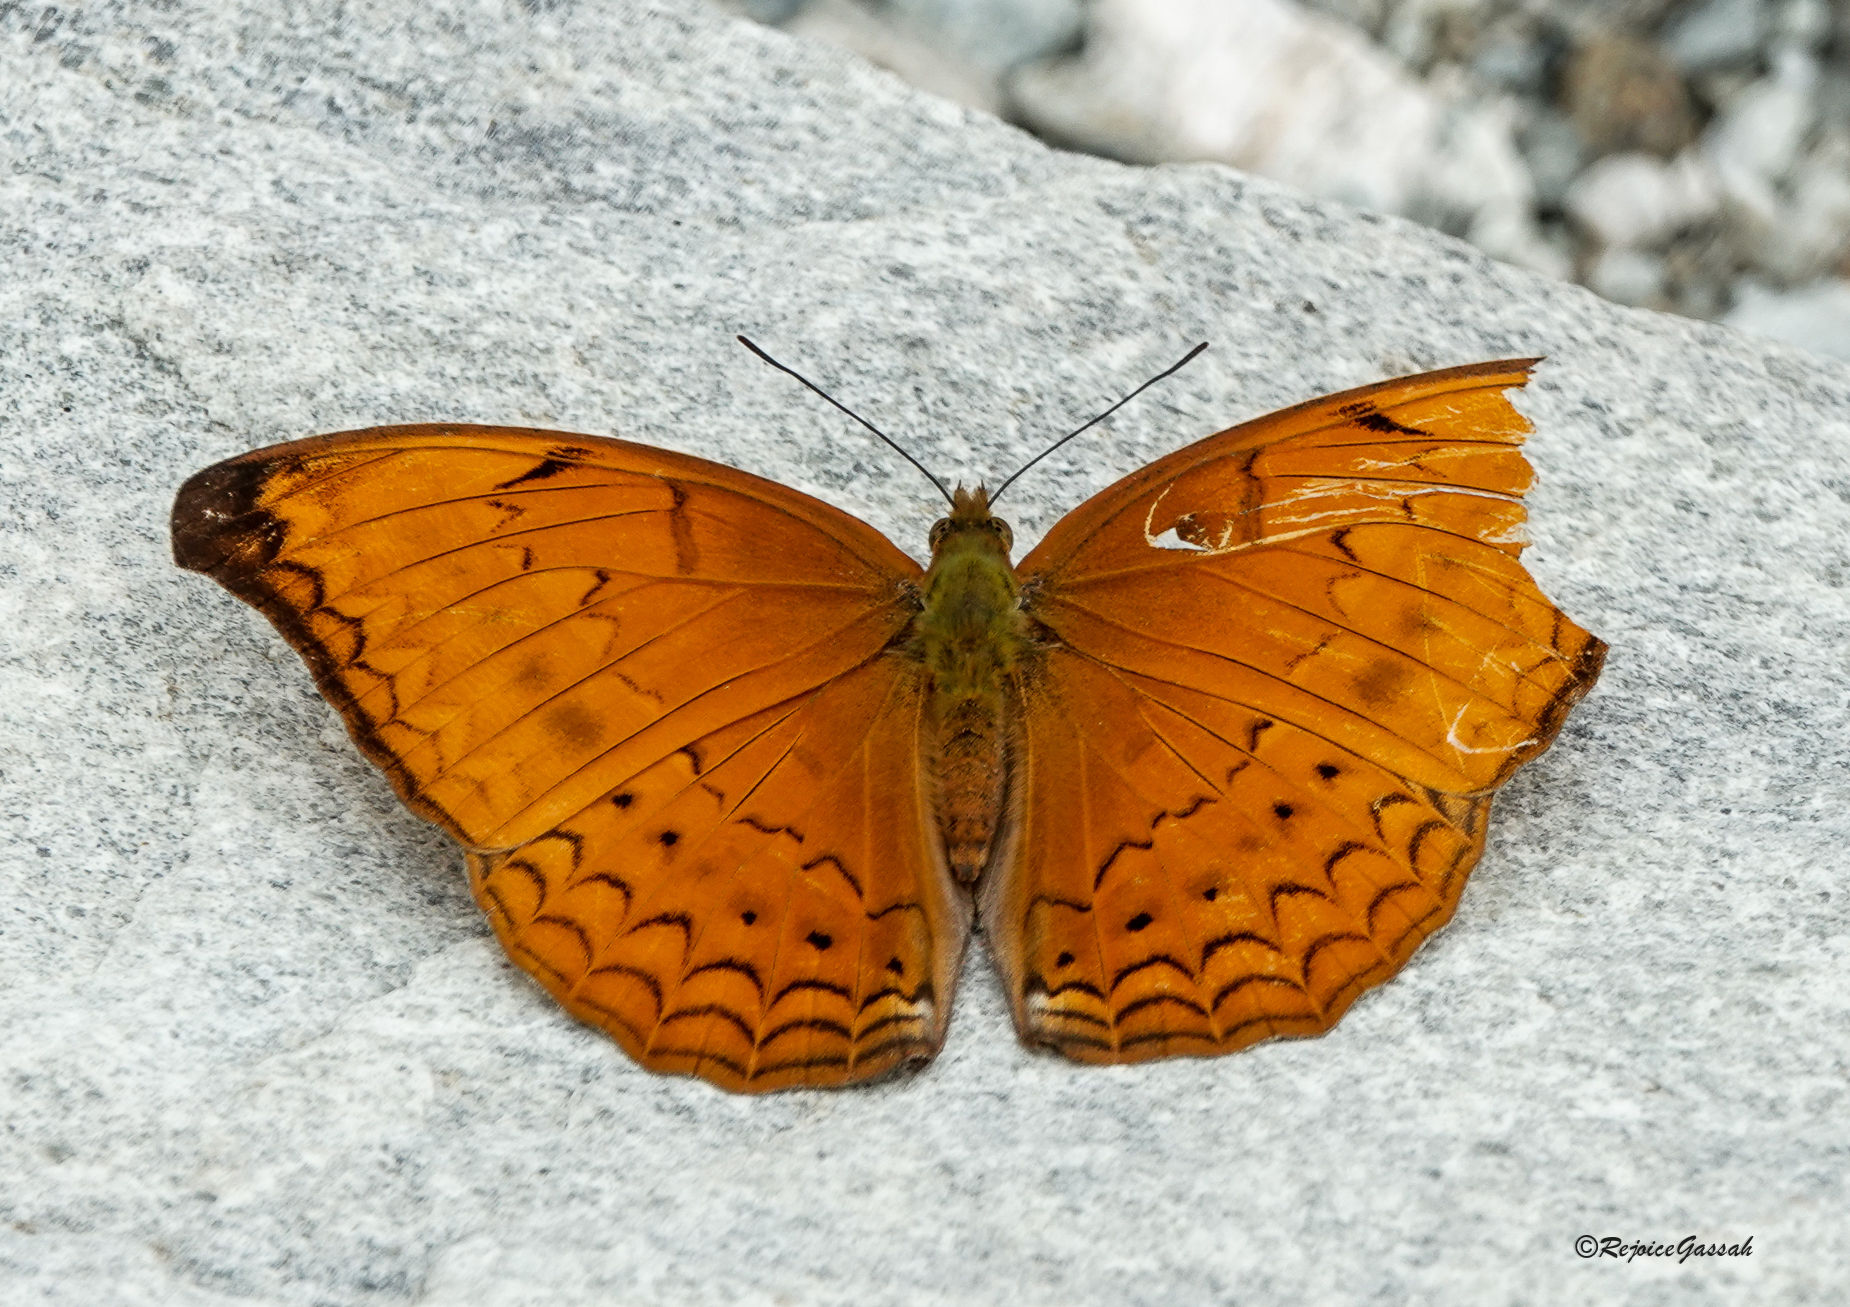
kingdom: Animalia
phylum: Arthropoda
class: Insecta
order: Lepidoptera
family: Nymphalidae
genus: Cirrochroa
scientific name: Cirrochroa aoris
